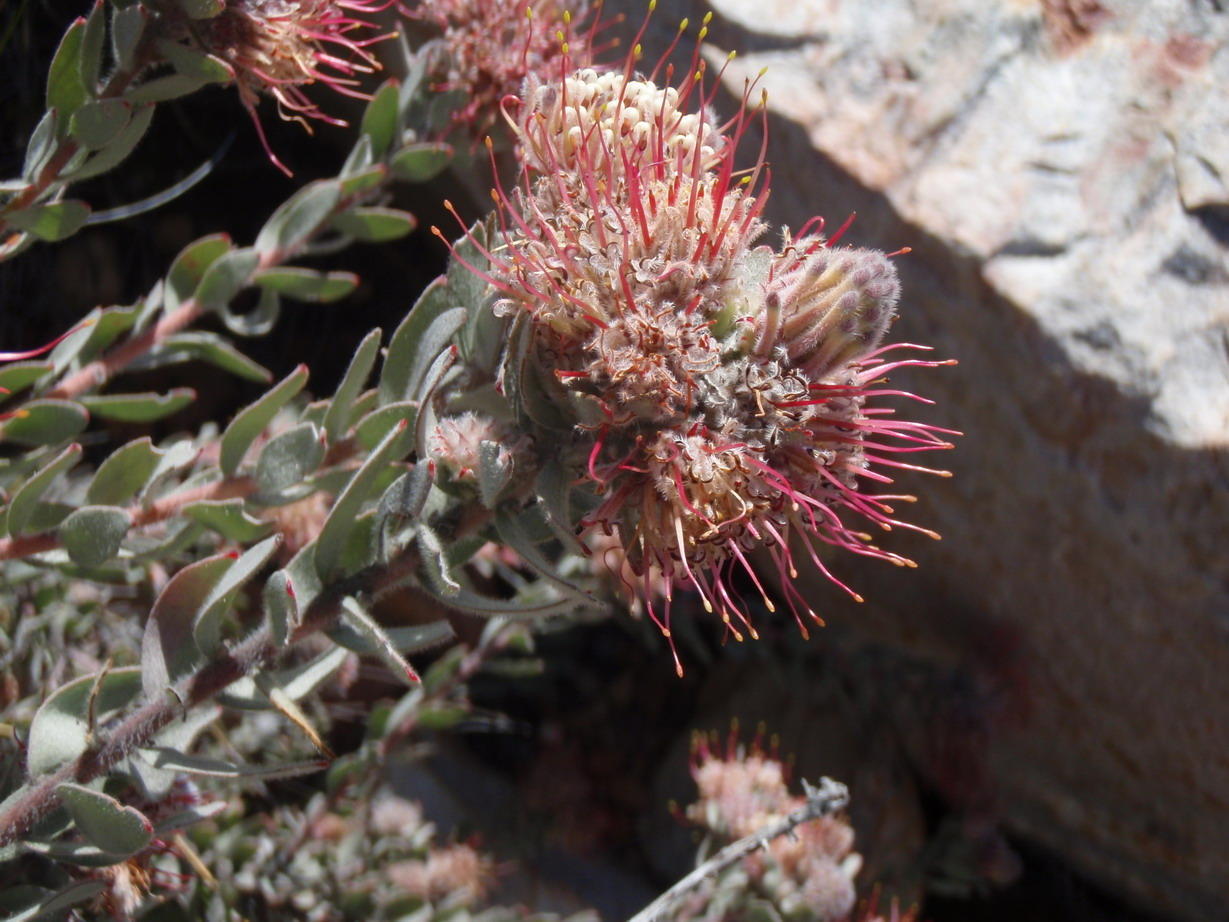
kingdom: Plantae
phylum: Tracheophyta
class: Magnoliopsida
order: Proteales
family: Proteaceae
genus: Leucospermum
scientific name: Leucospermum wittebergense
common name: Swartberg pincushion
